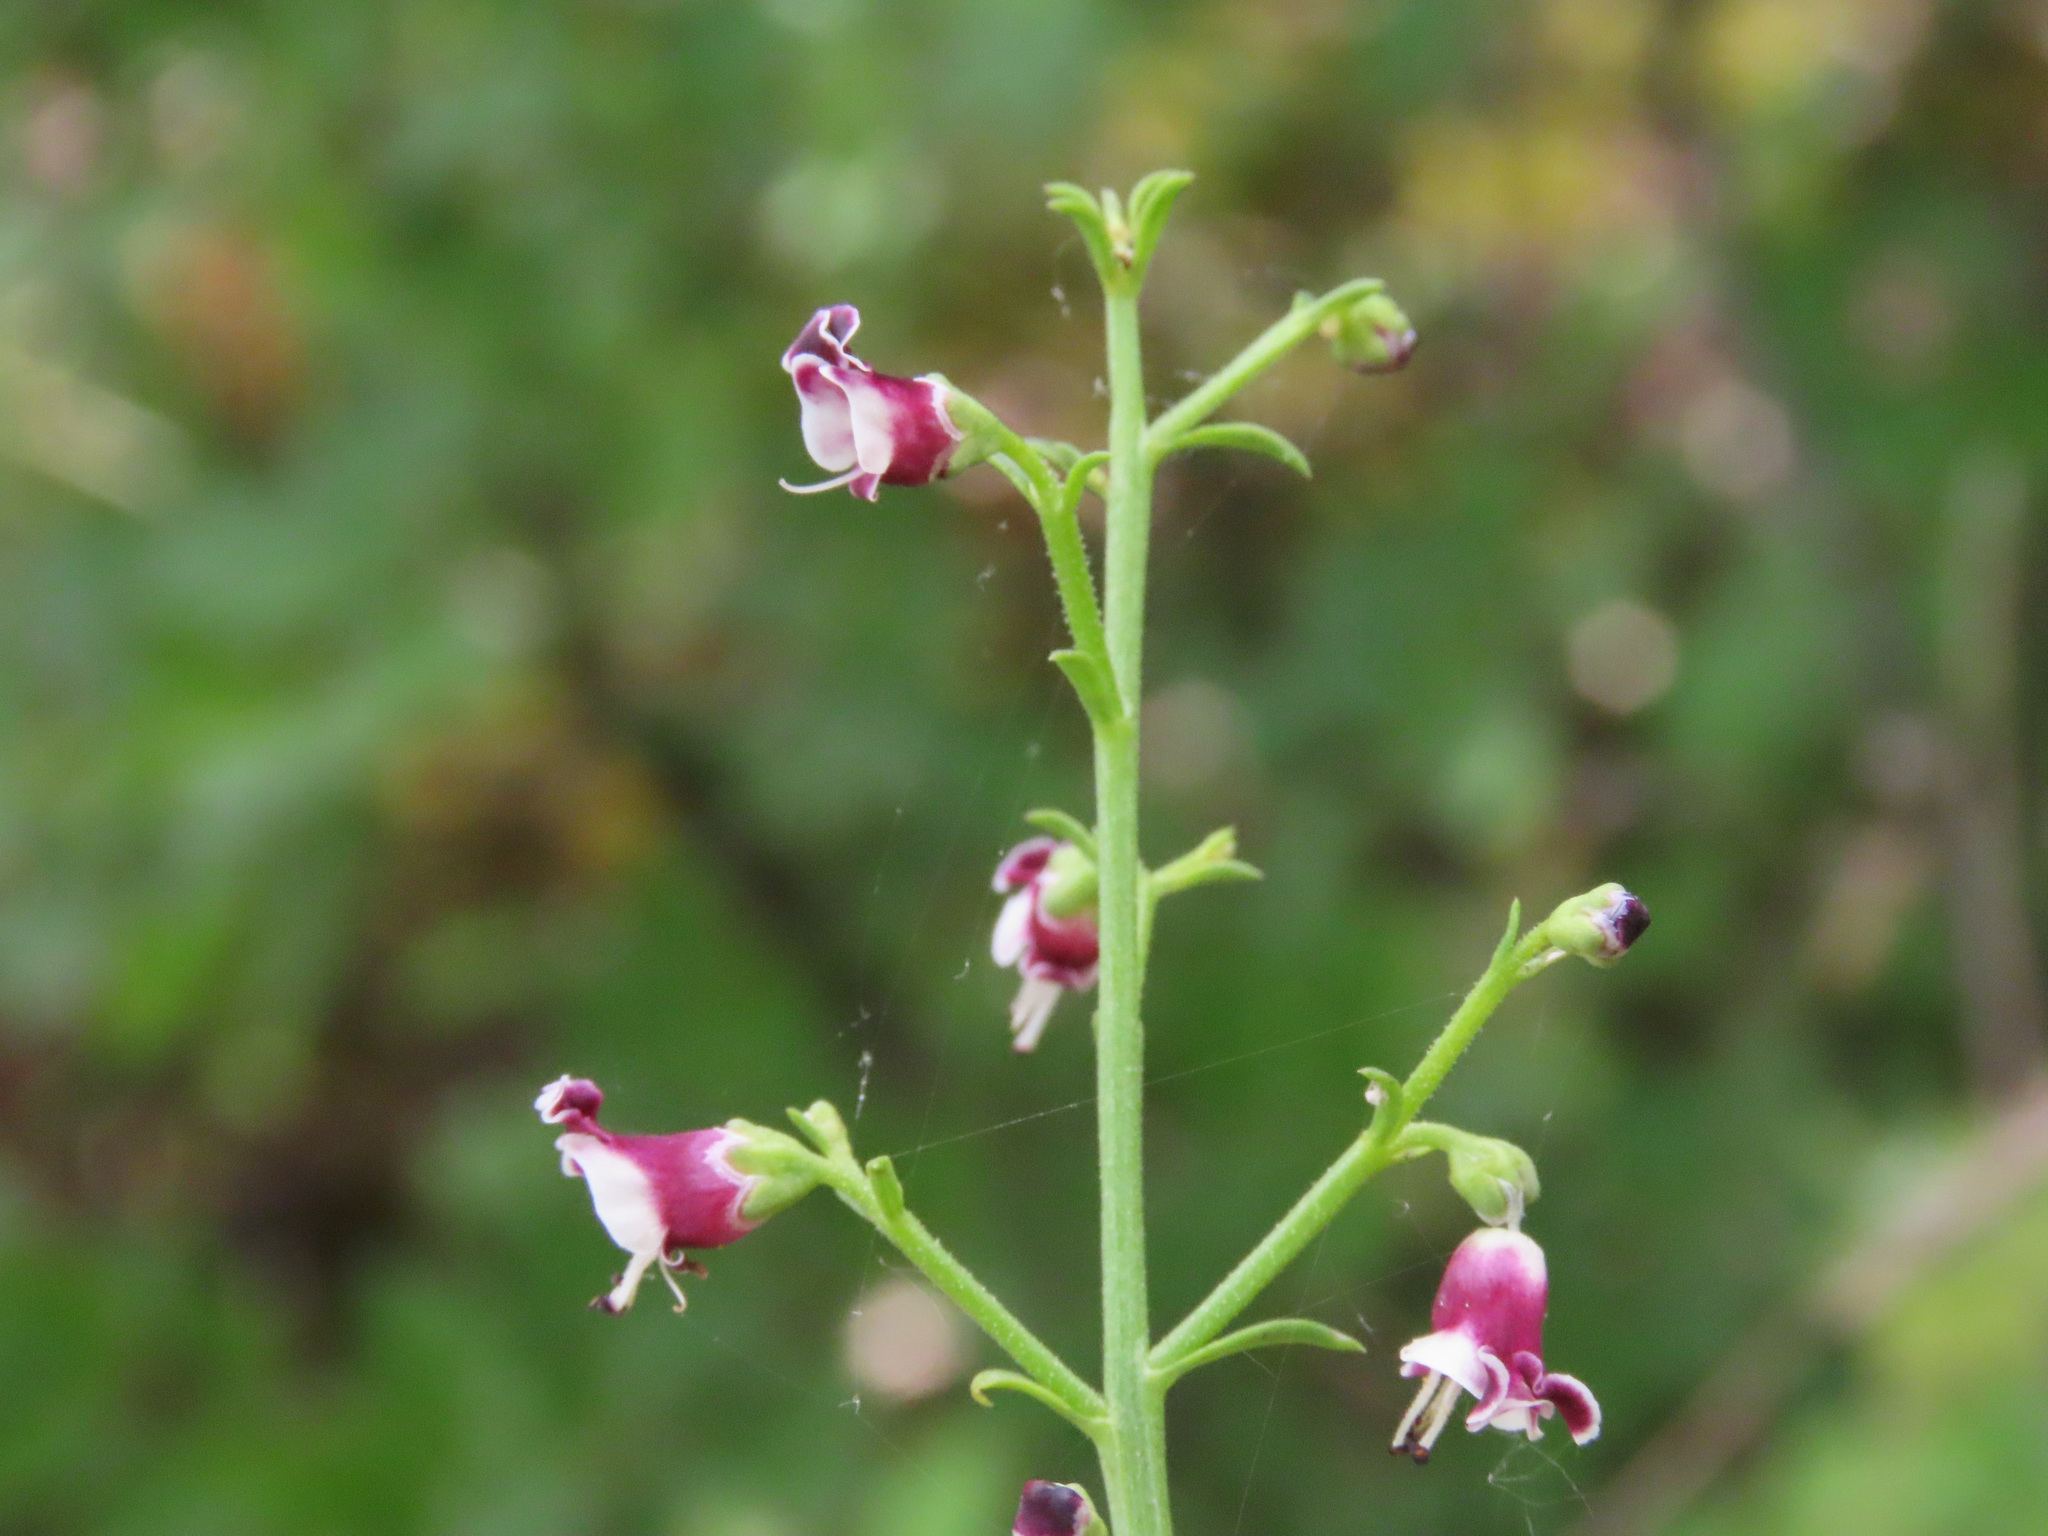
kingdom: Plantae
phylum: Tracheophyta
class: Magnoliopsida
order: Lamiales
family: Scrophulariaceae
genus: Scrophularia
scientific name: Scrophularia canina
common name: French figwort
